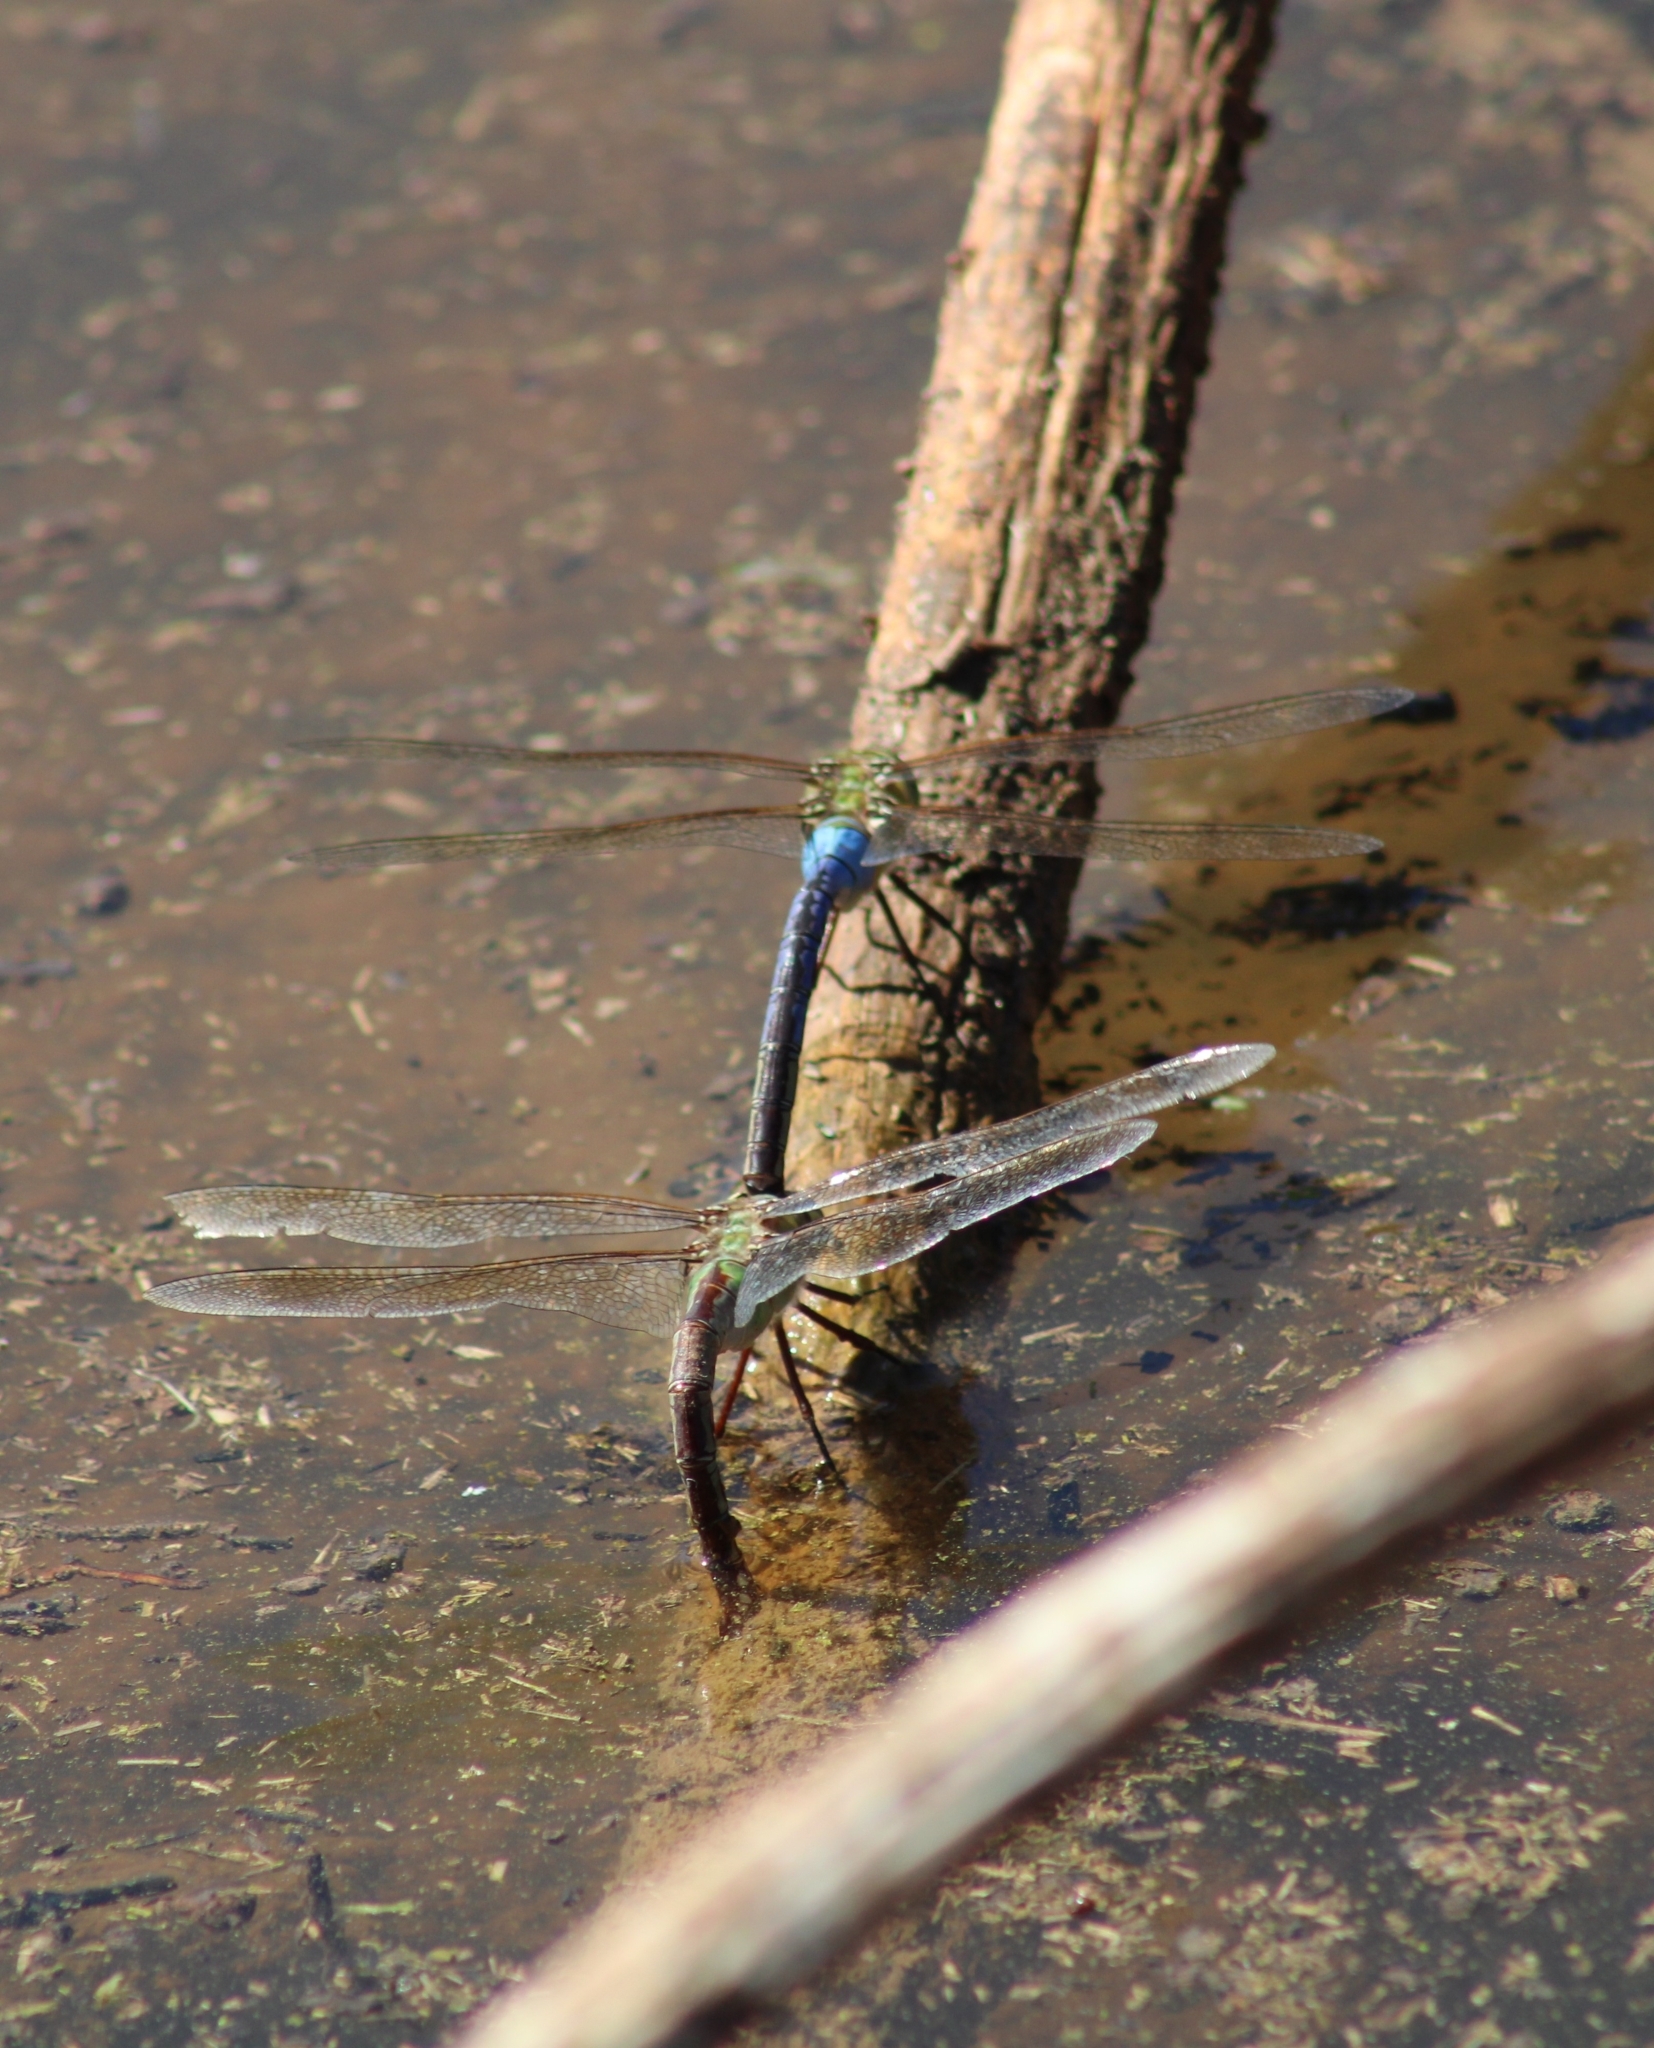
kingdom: Animalia
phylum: Arthropoda
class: Insecta
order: Odonata
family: Aeshnidae
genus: Anax
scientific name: Anax junius
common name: Common green darner
